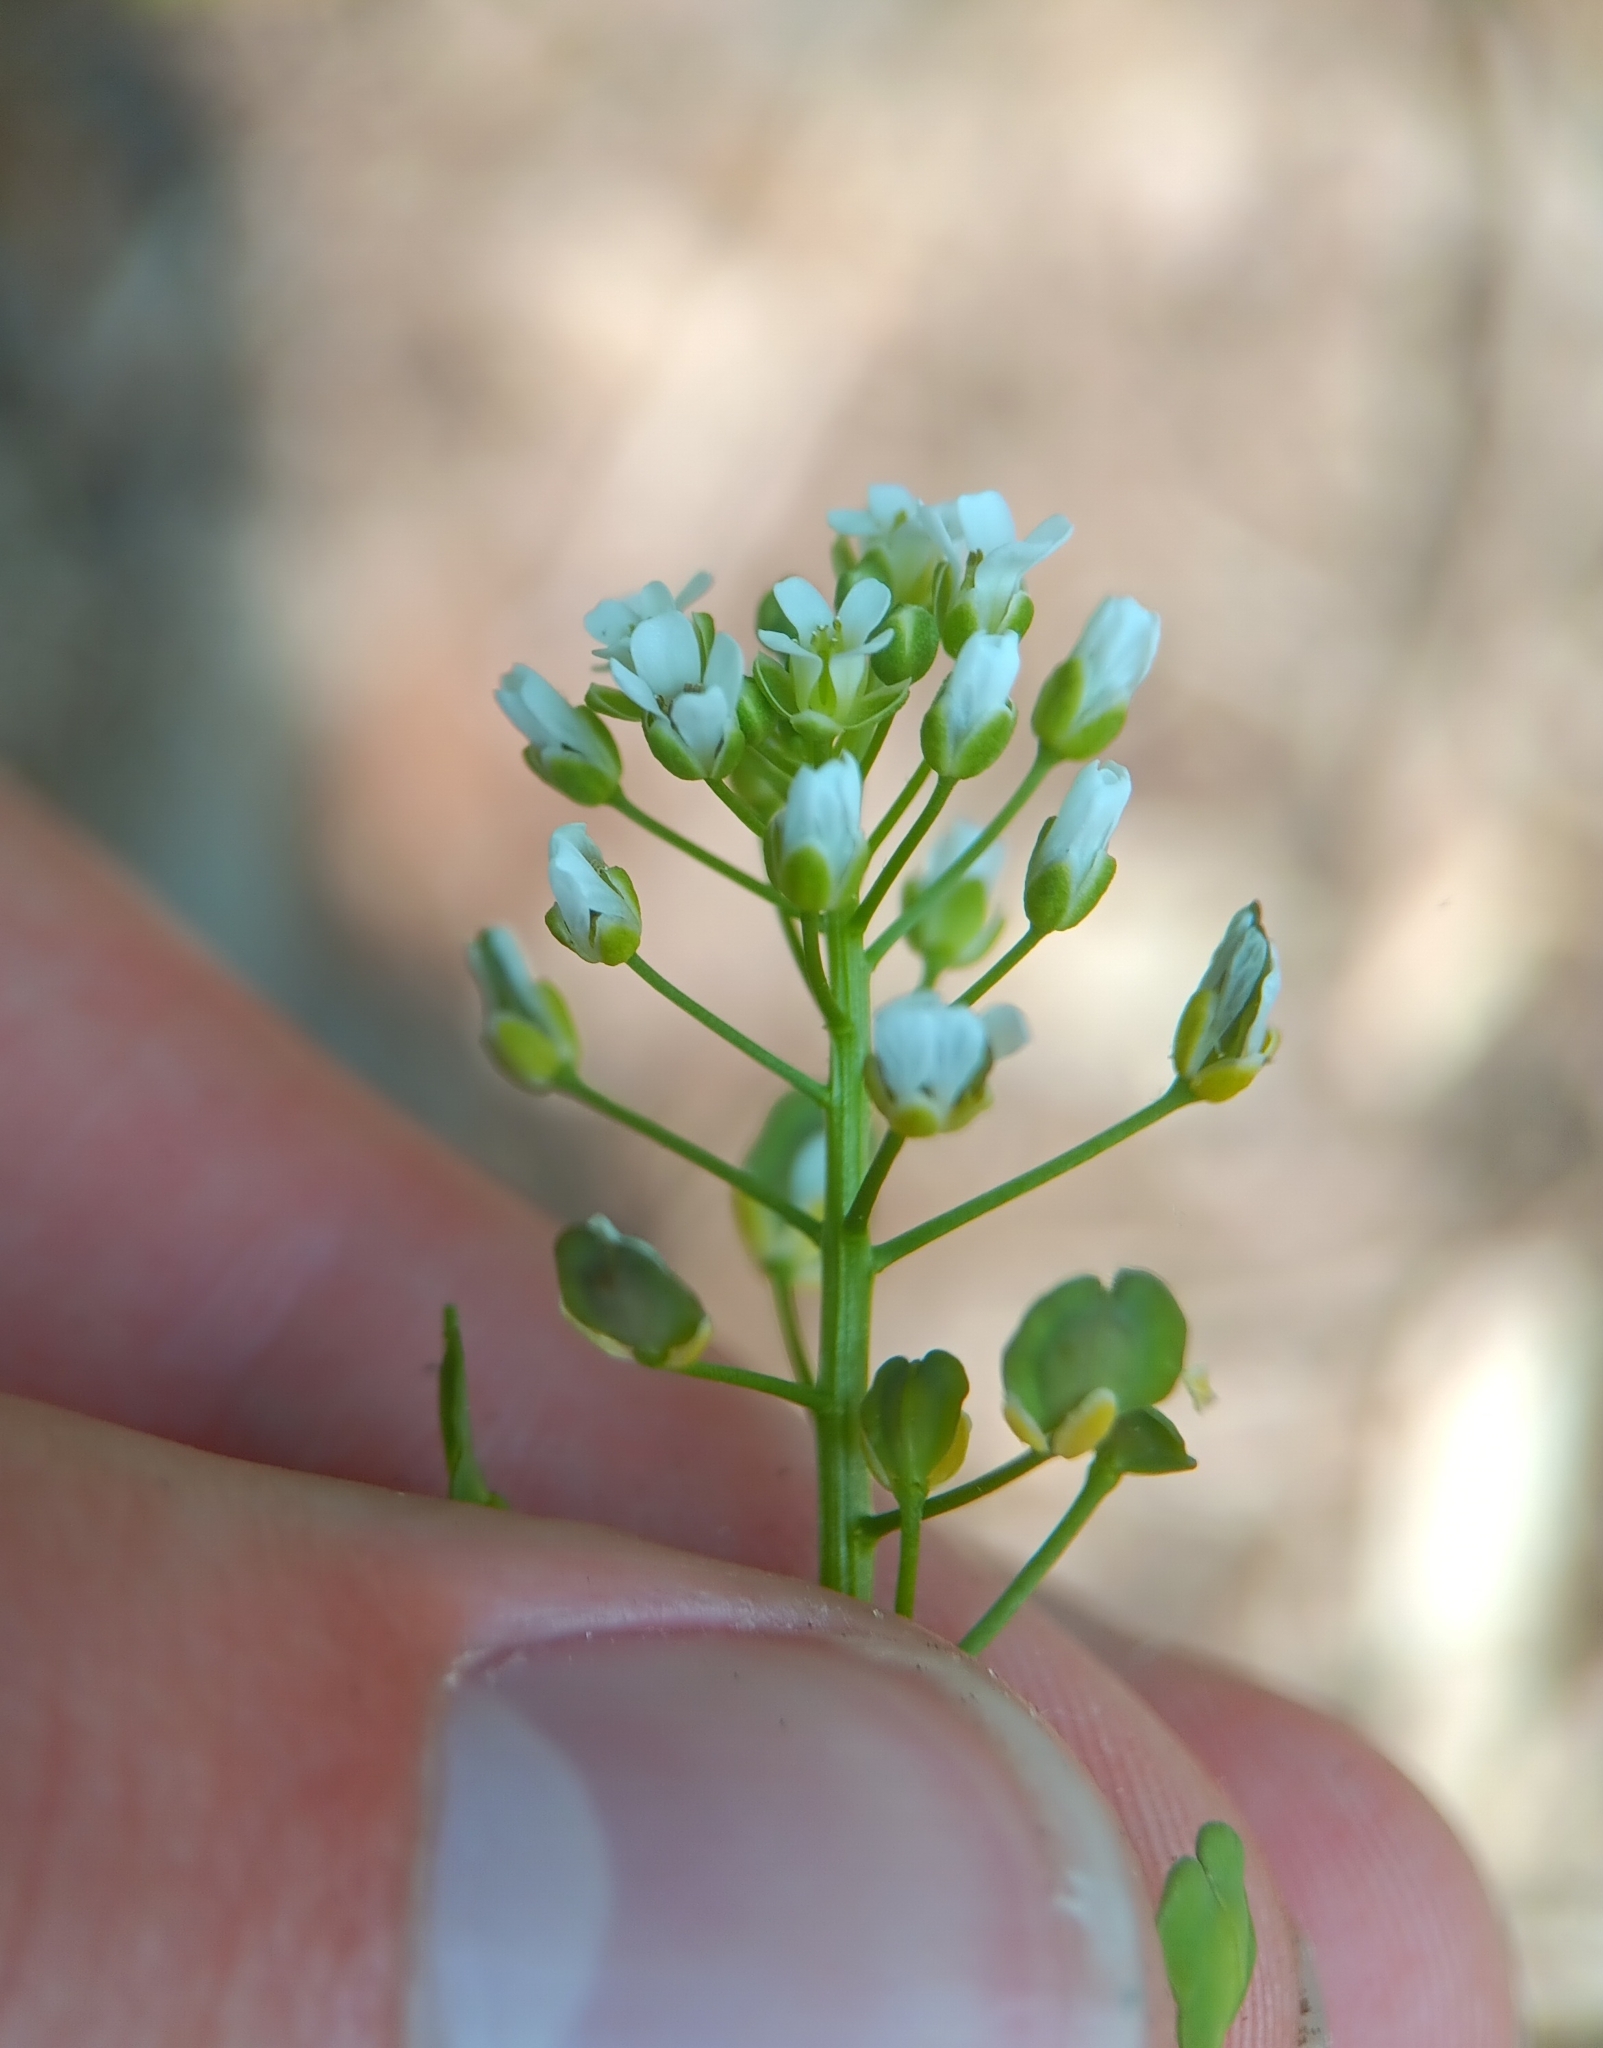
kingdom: Plantae
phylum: Tracheophyta
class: Magnoliopsida
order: Brassicales
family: Brassicaceae
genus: Thlaspi
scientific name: Thlaspi arvense
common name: Field pennycress
